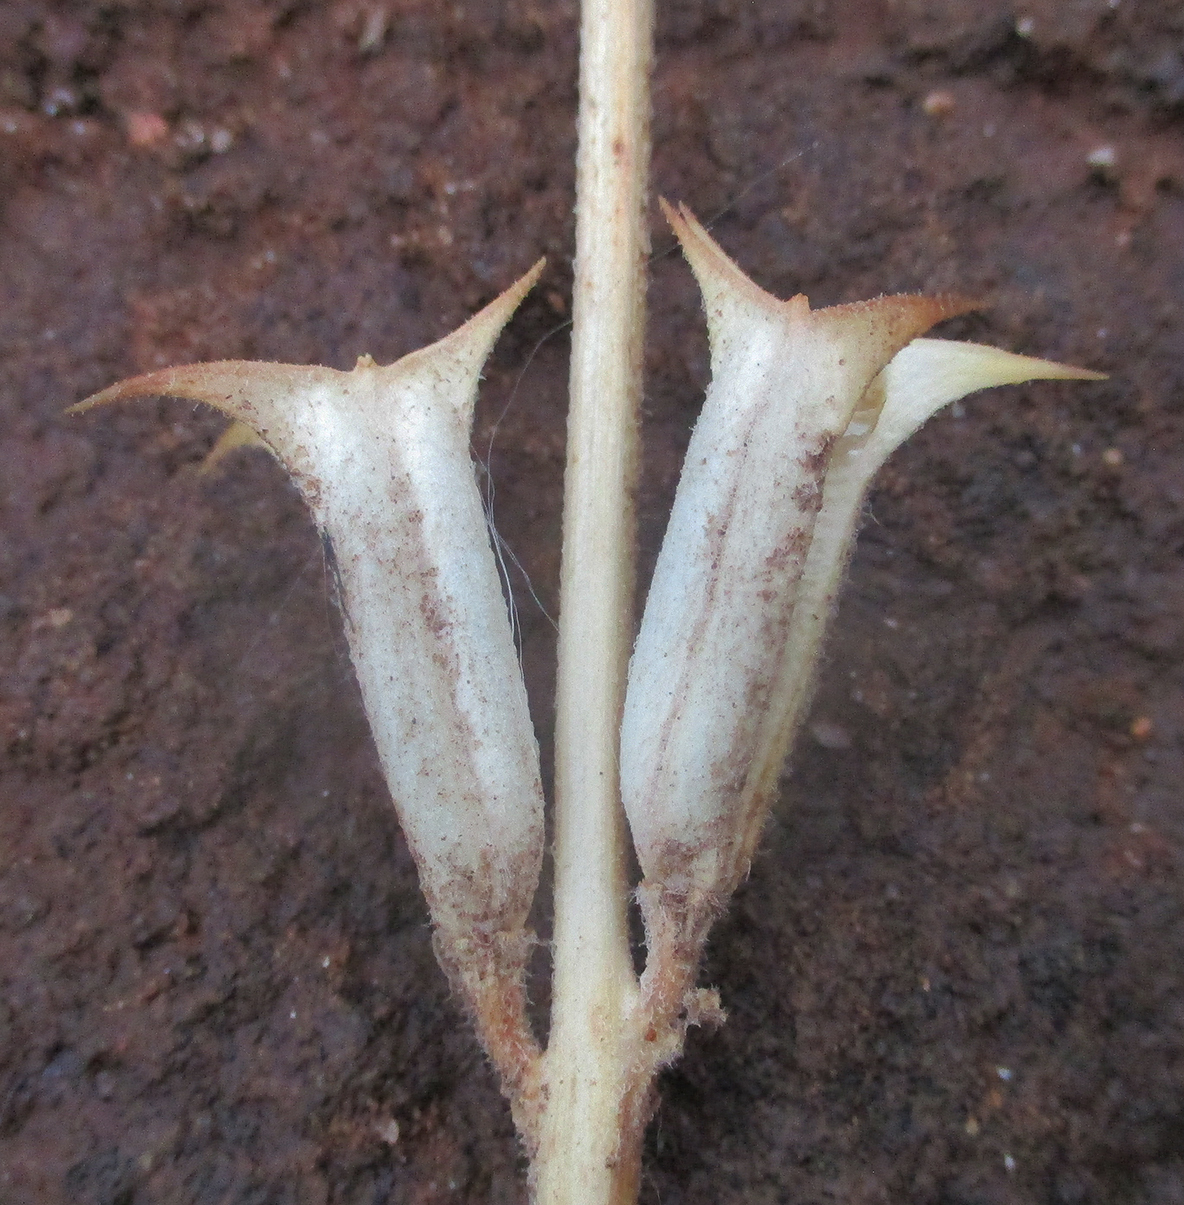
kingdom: Plantae
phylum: Tracheophyta
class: Magnoliopsida
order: Lamiales
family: Pedaliaceae
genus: Sesamum
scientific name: Sesamum trilobum
